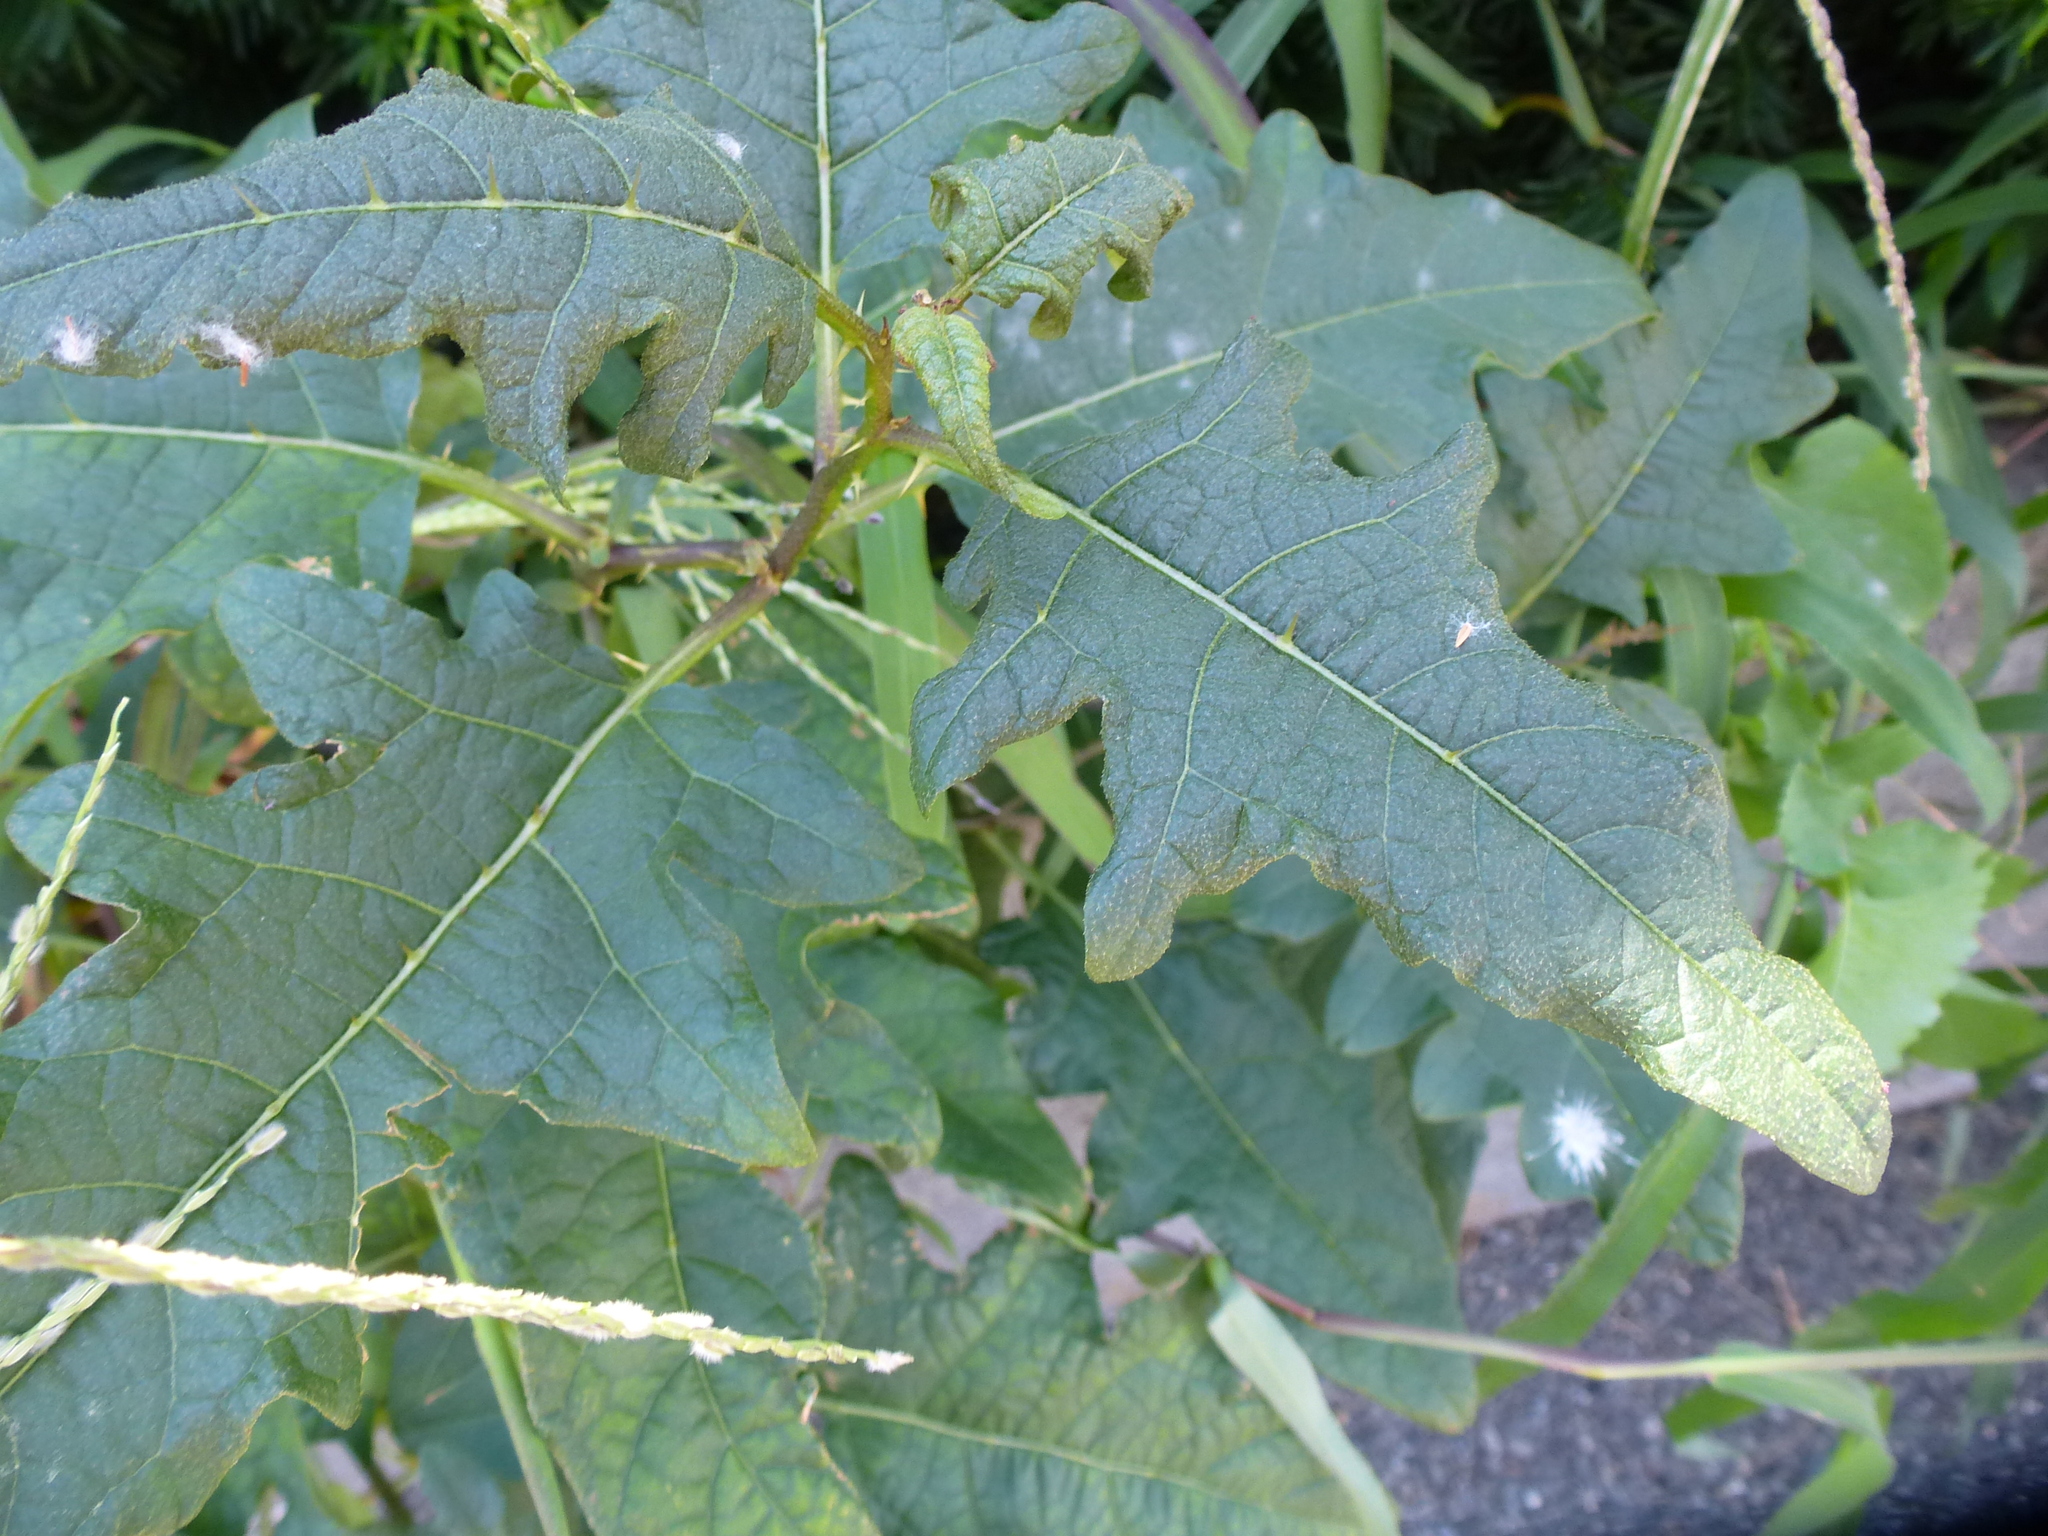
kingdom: Plantae
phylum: Tracheophyta
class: Magnoliopsida
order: Solanales
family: Solanaceae
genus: Solanum
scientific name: Solanum carolinense
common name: Horse-nettle
